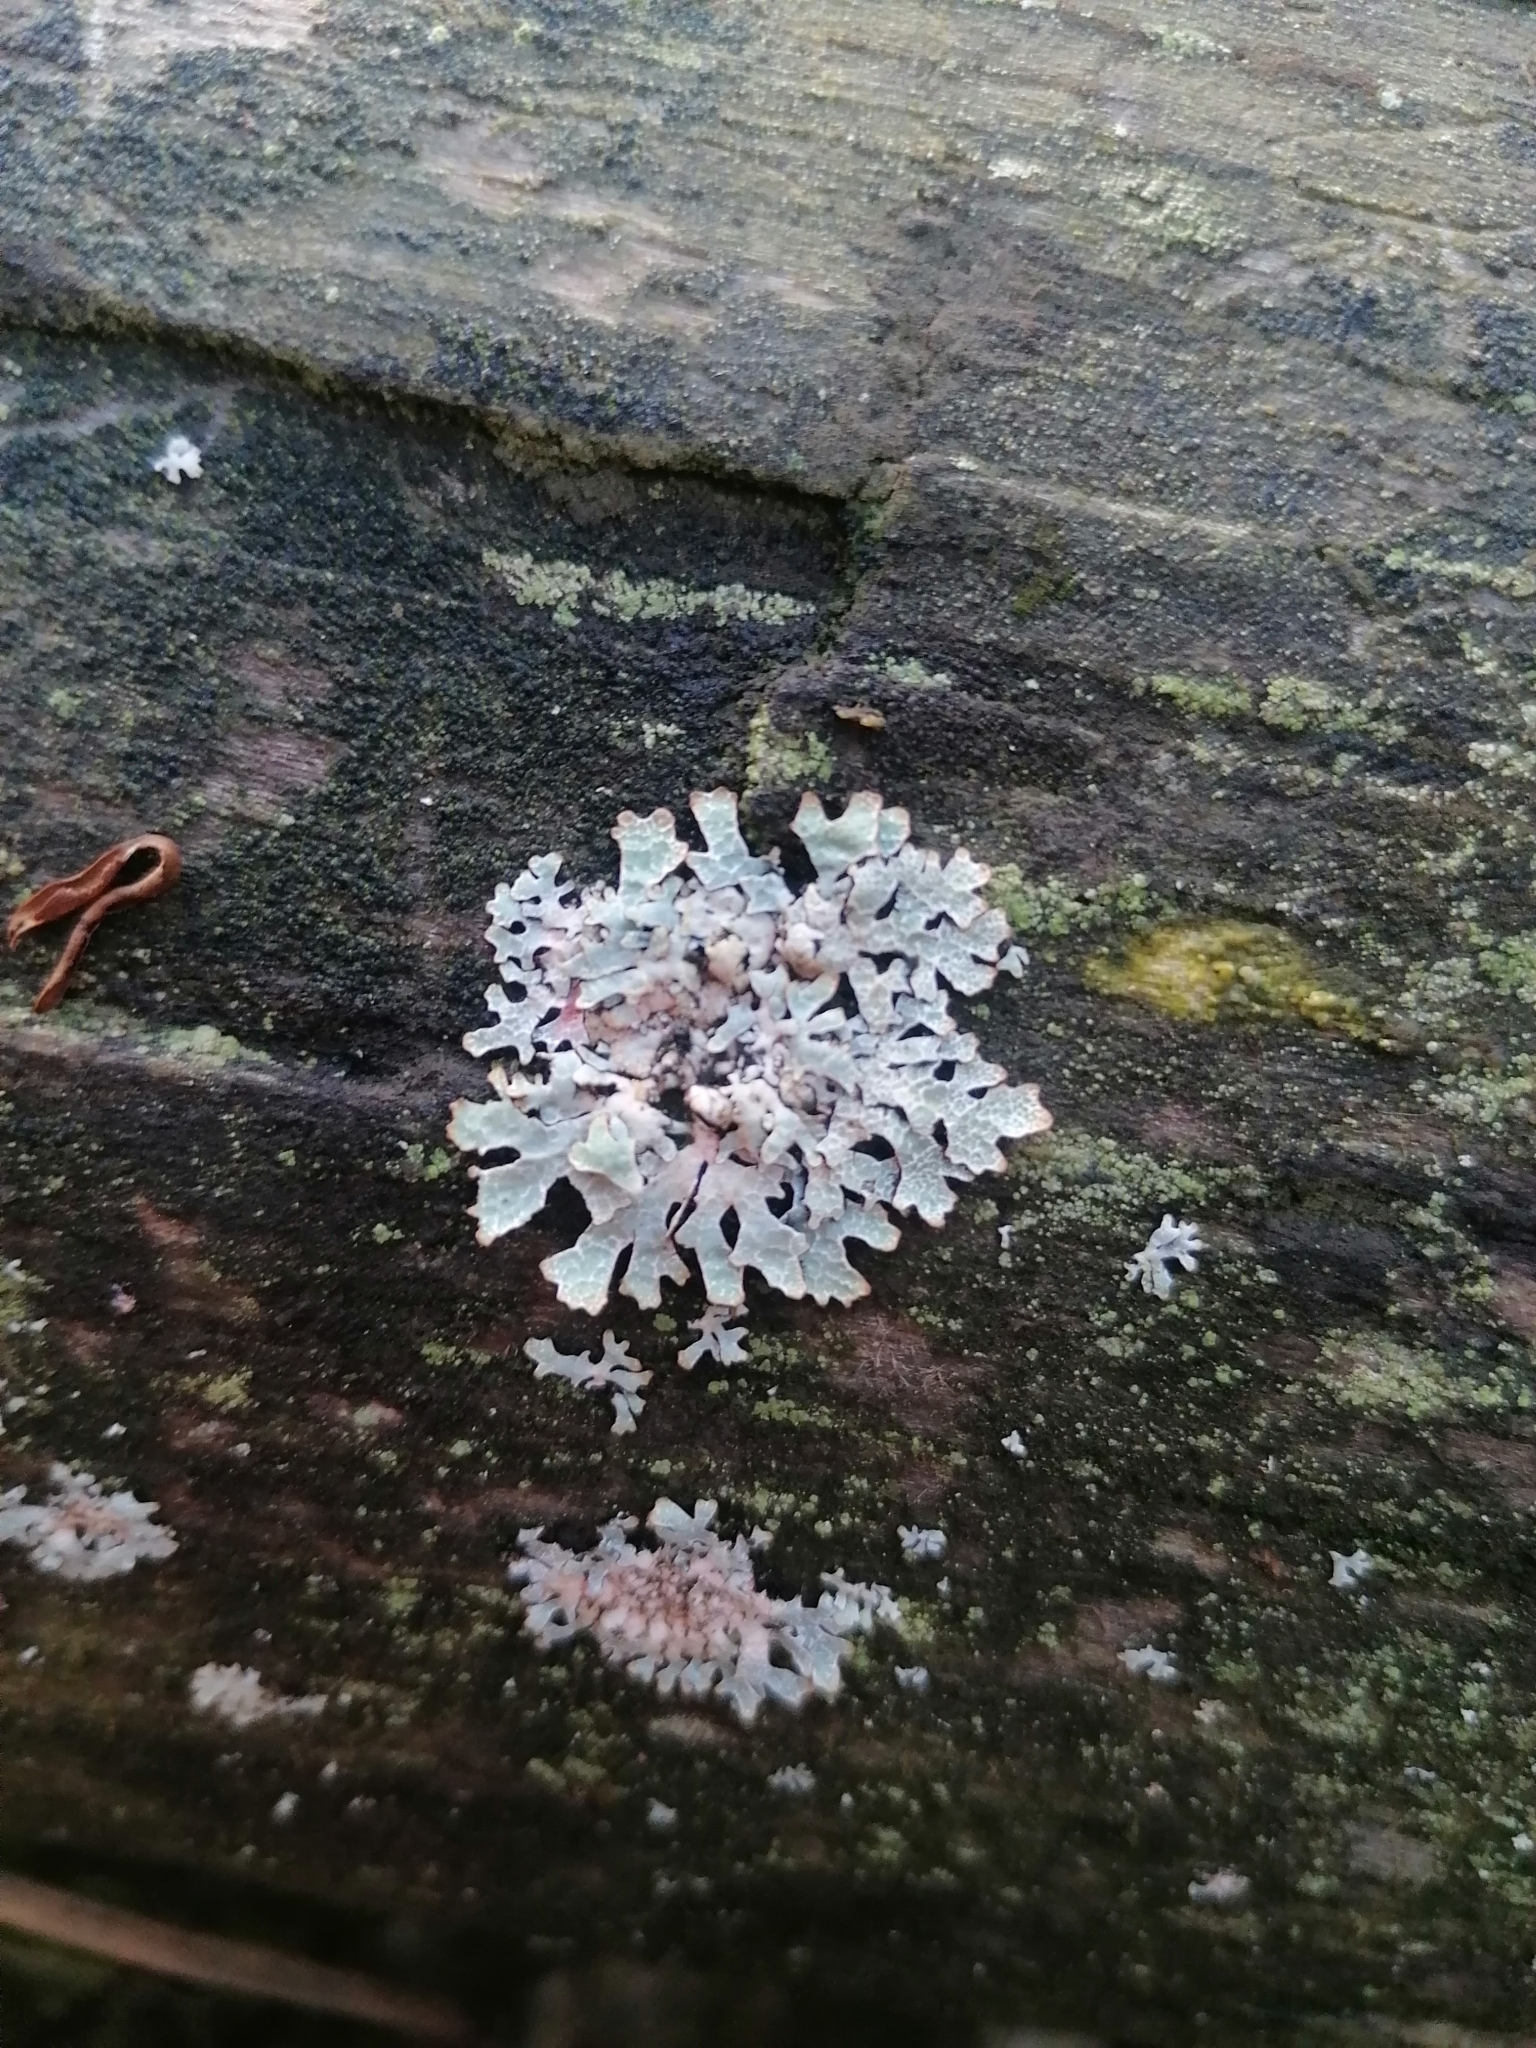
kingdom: Fungi
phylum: Ascomycota
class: Lecanoromycetes
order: Lecanorales
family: Parmeliaceae
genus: Parmelia
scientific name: Parmelia sulcata
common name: Netted shield lichen
